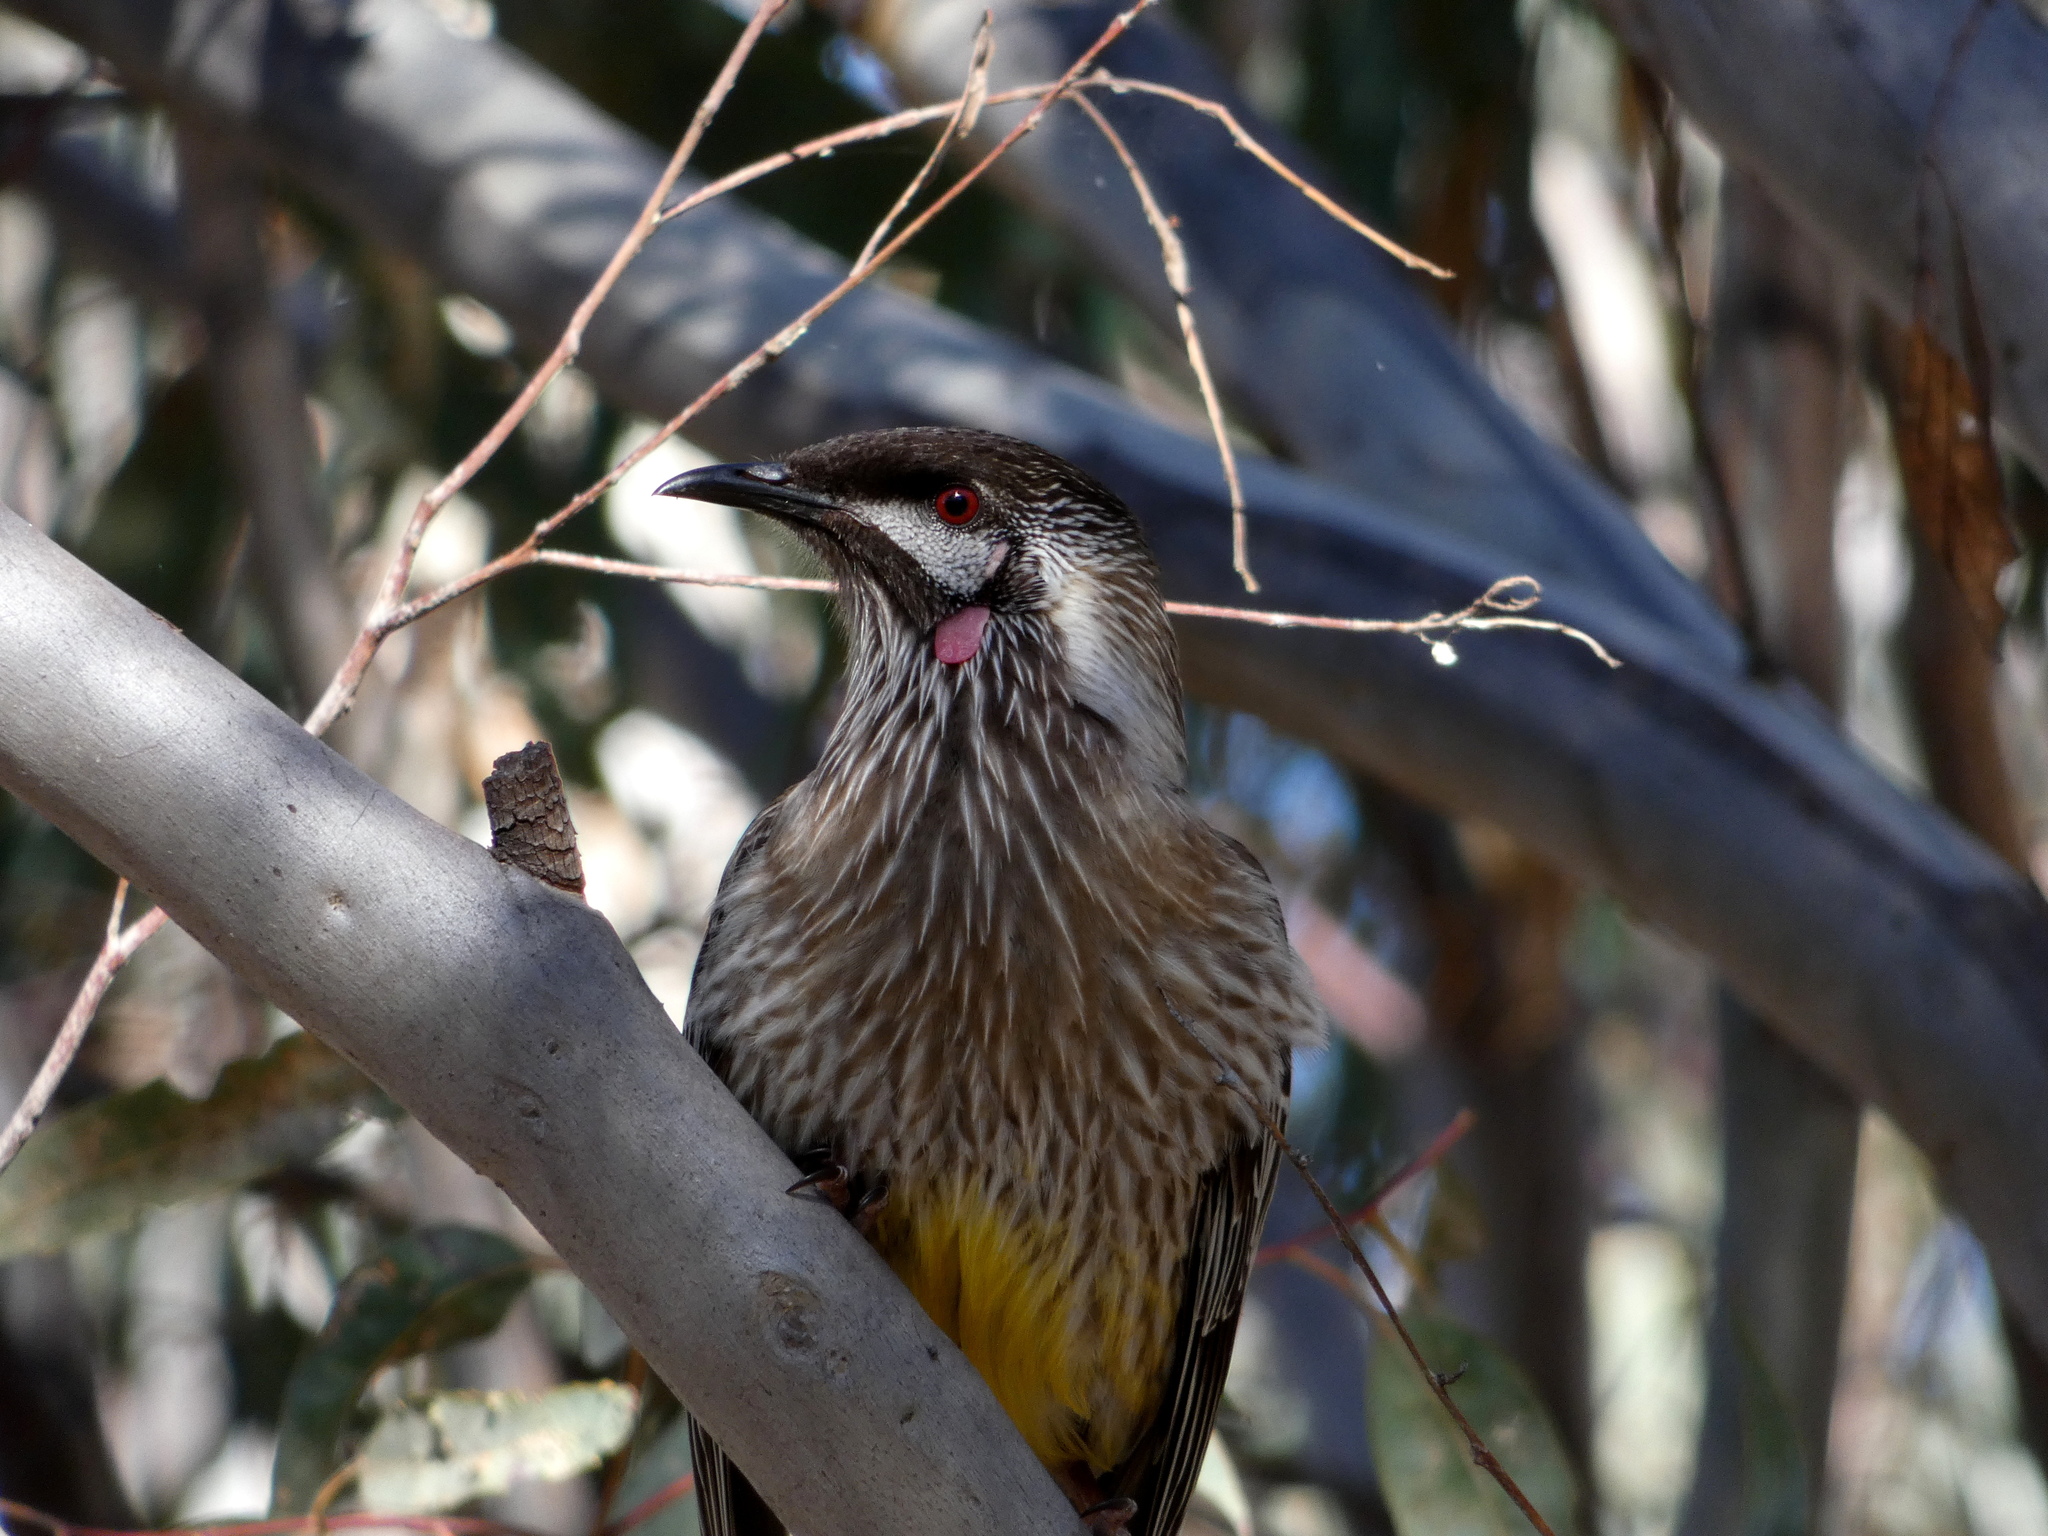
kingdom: Animalia
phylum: Chordata
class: Aves
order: Passeriformes
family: Meliphagidae
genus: Anthochaera
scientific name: Anthochaera carunculata
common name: Red wattlebird
